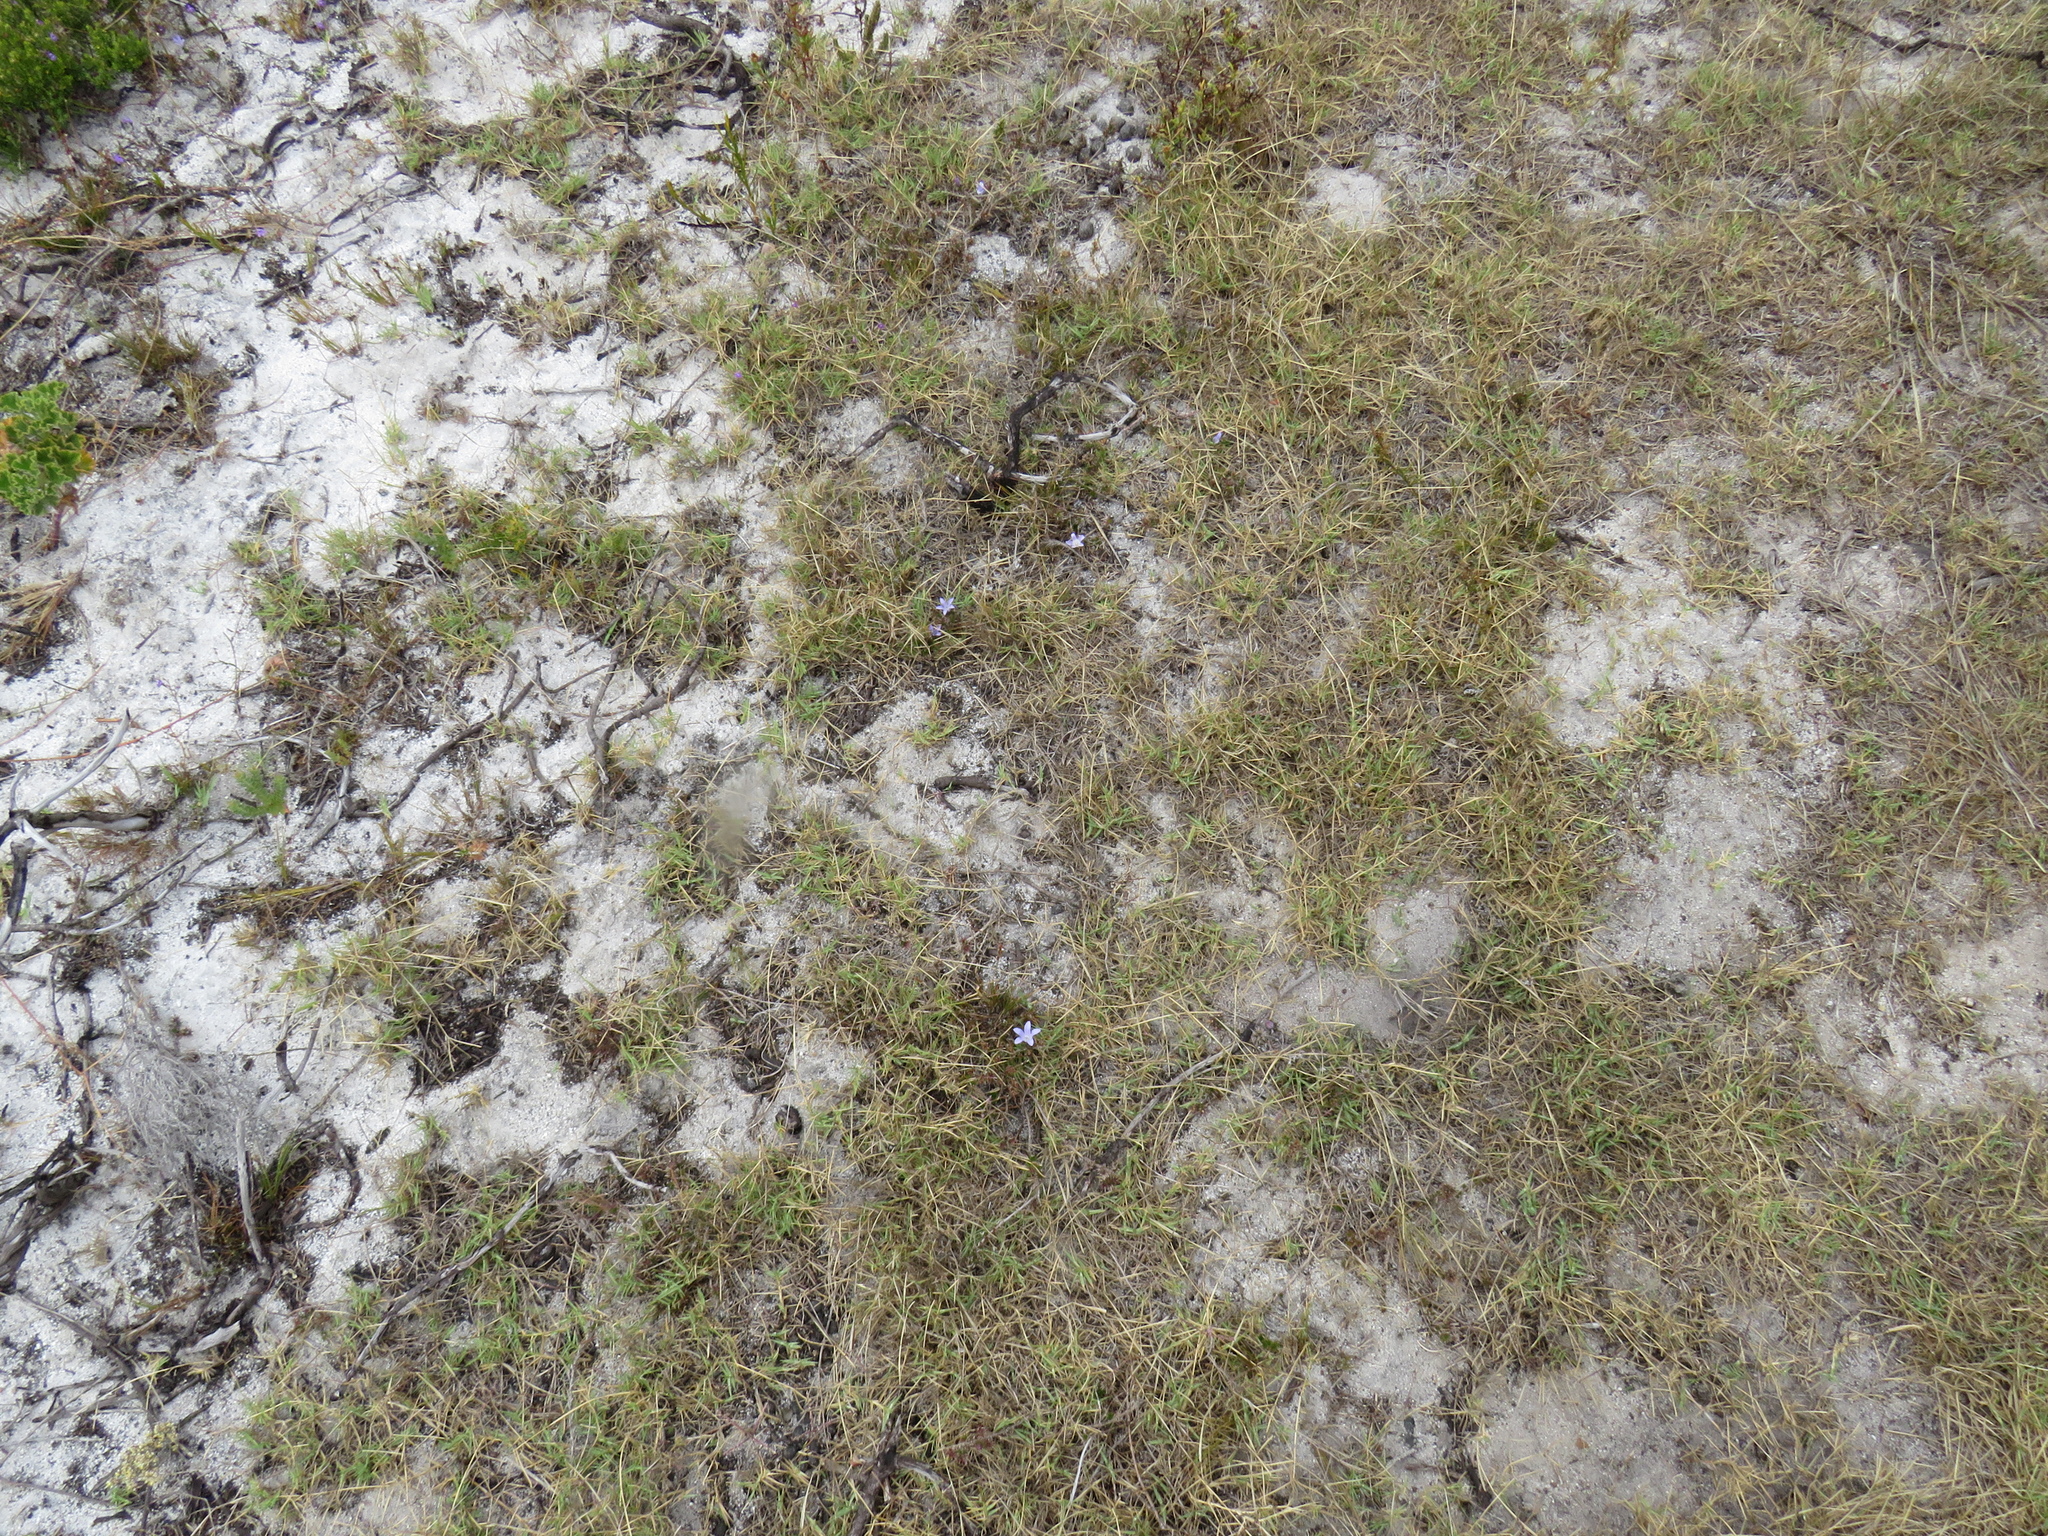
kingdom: Plantae
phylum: Tracheophyta
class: Magnoliopsida
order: Asterales
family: Campanulaceae
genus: Roella
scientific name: Roella prostrata
